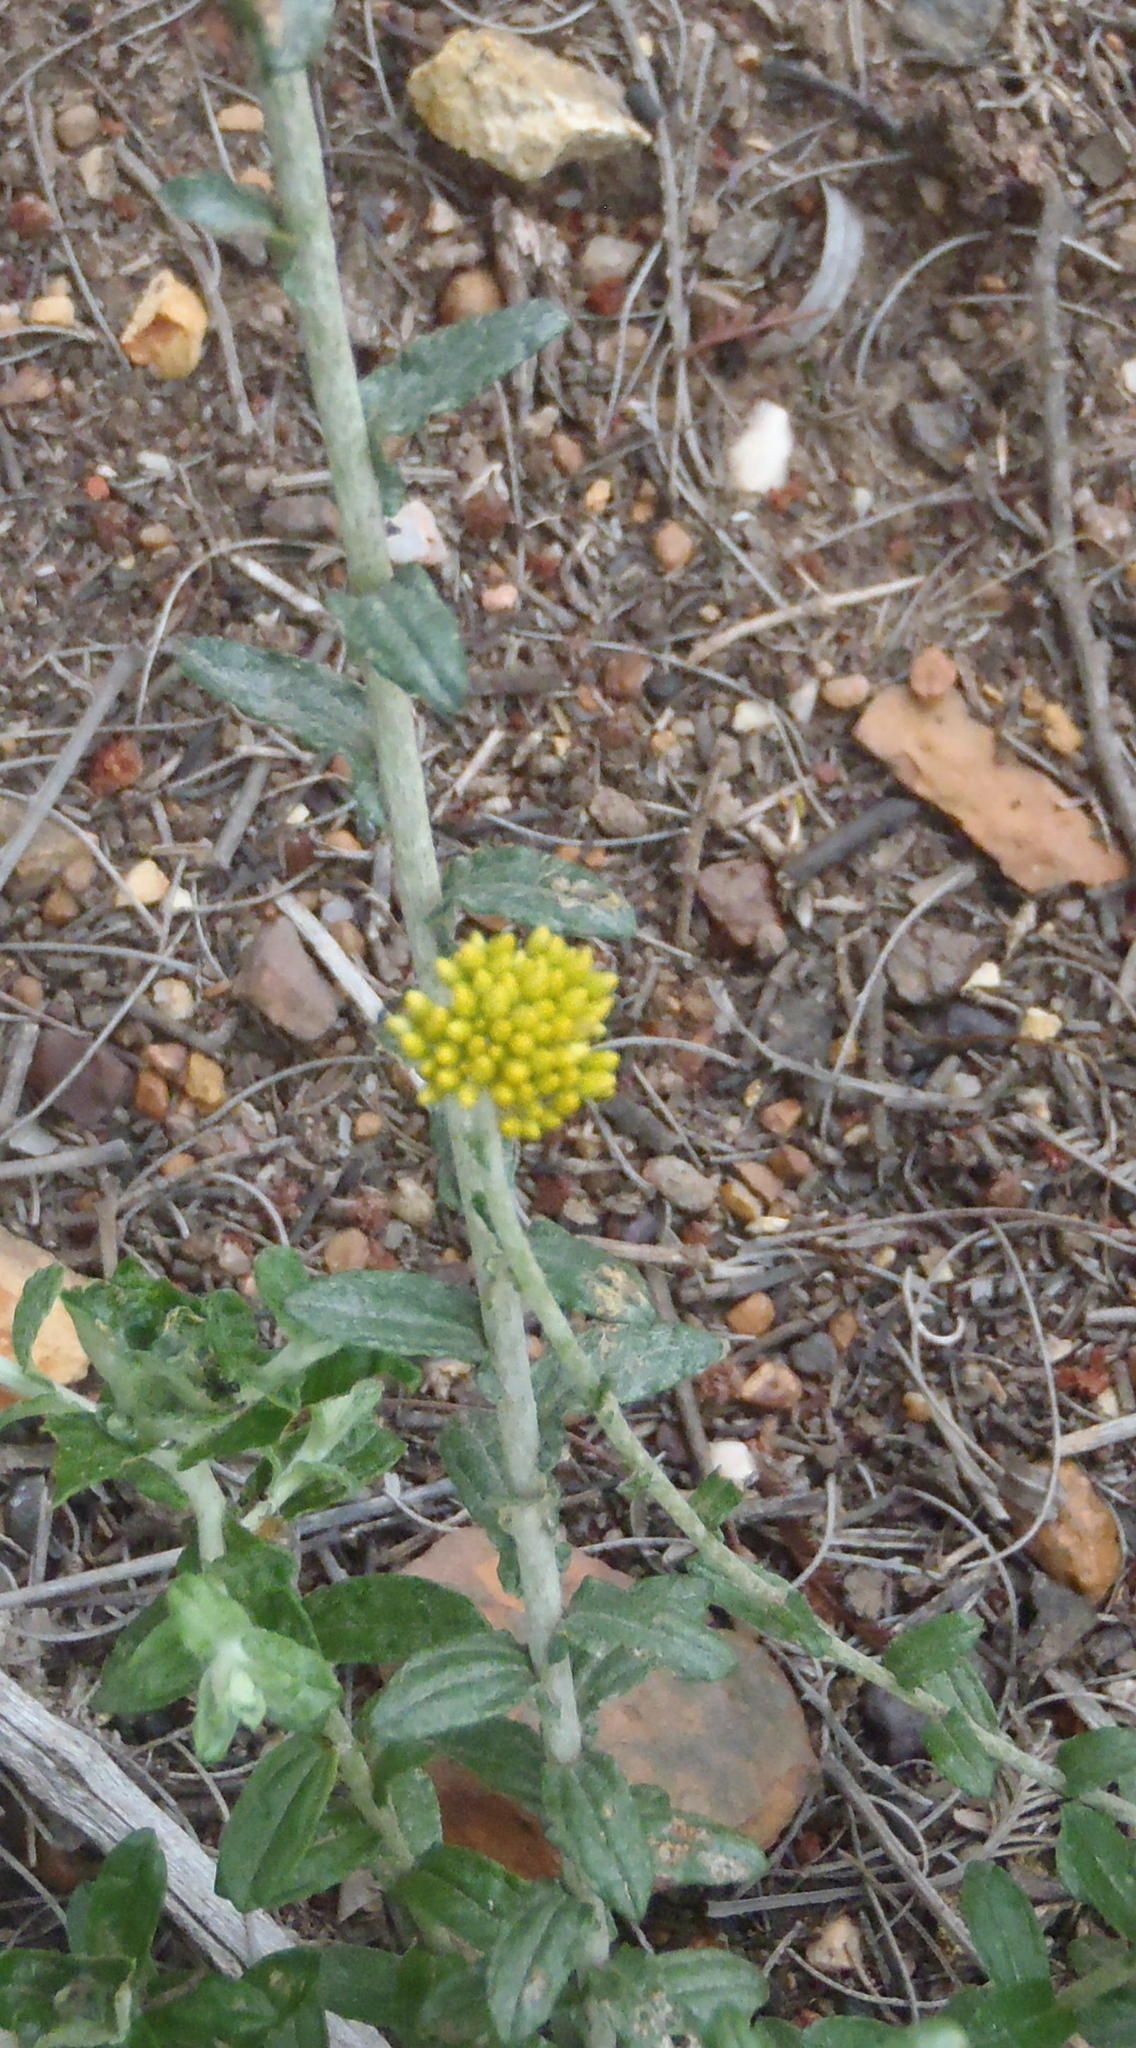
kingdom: Plantae
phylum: Tracheophyta
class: Magnoliopsida
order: Asterales
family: Asteraceae
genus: Helichrysum
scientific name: Helichrysum cymosum
